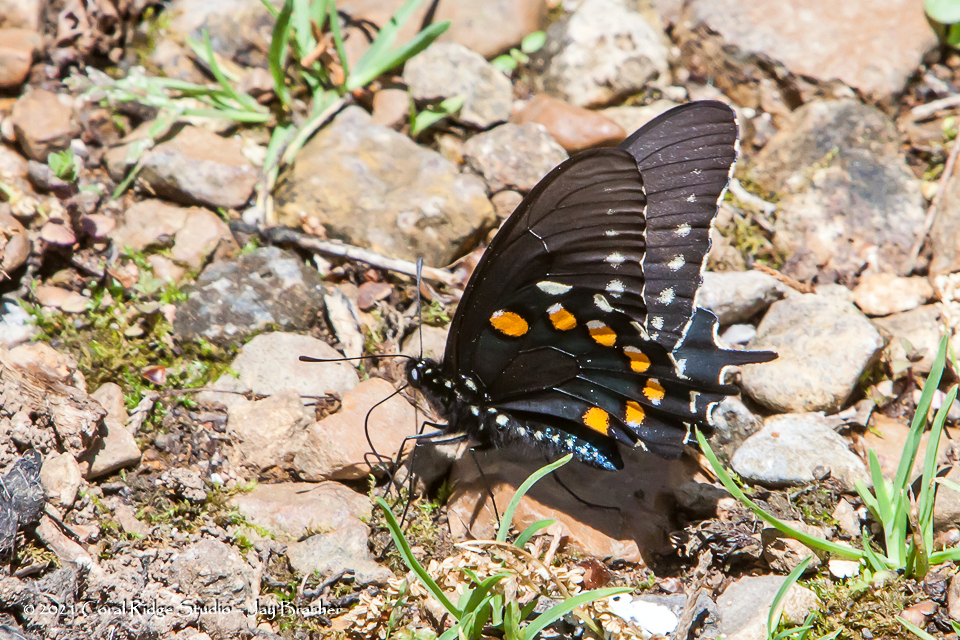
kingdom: Animalia
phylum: Arthropoda
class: Insecta
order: Lepidoptera
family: Papilionidae
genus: Battus
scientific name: Battus philenor
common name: Pipevine swallowtail
